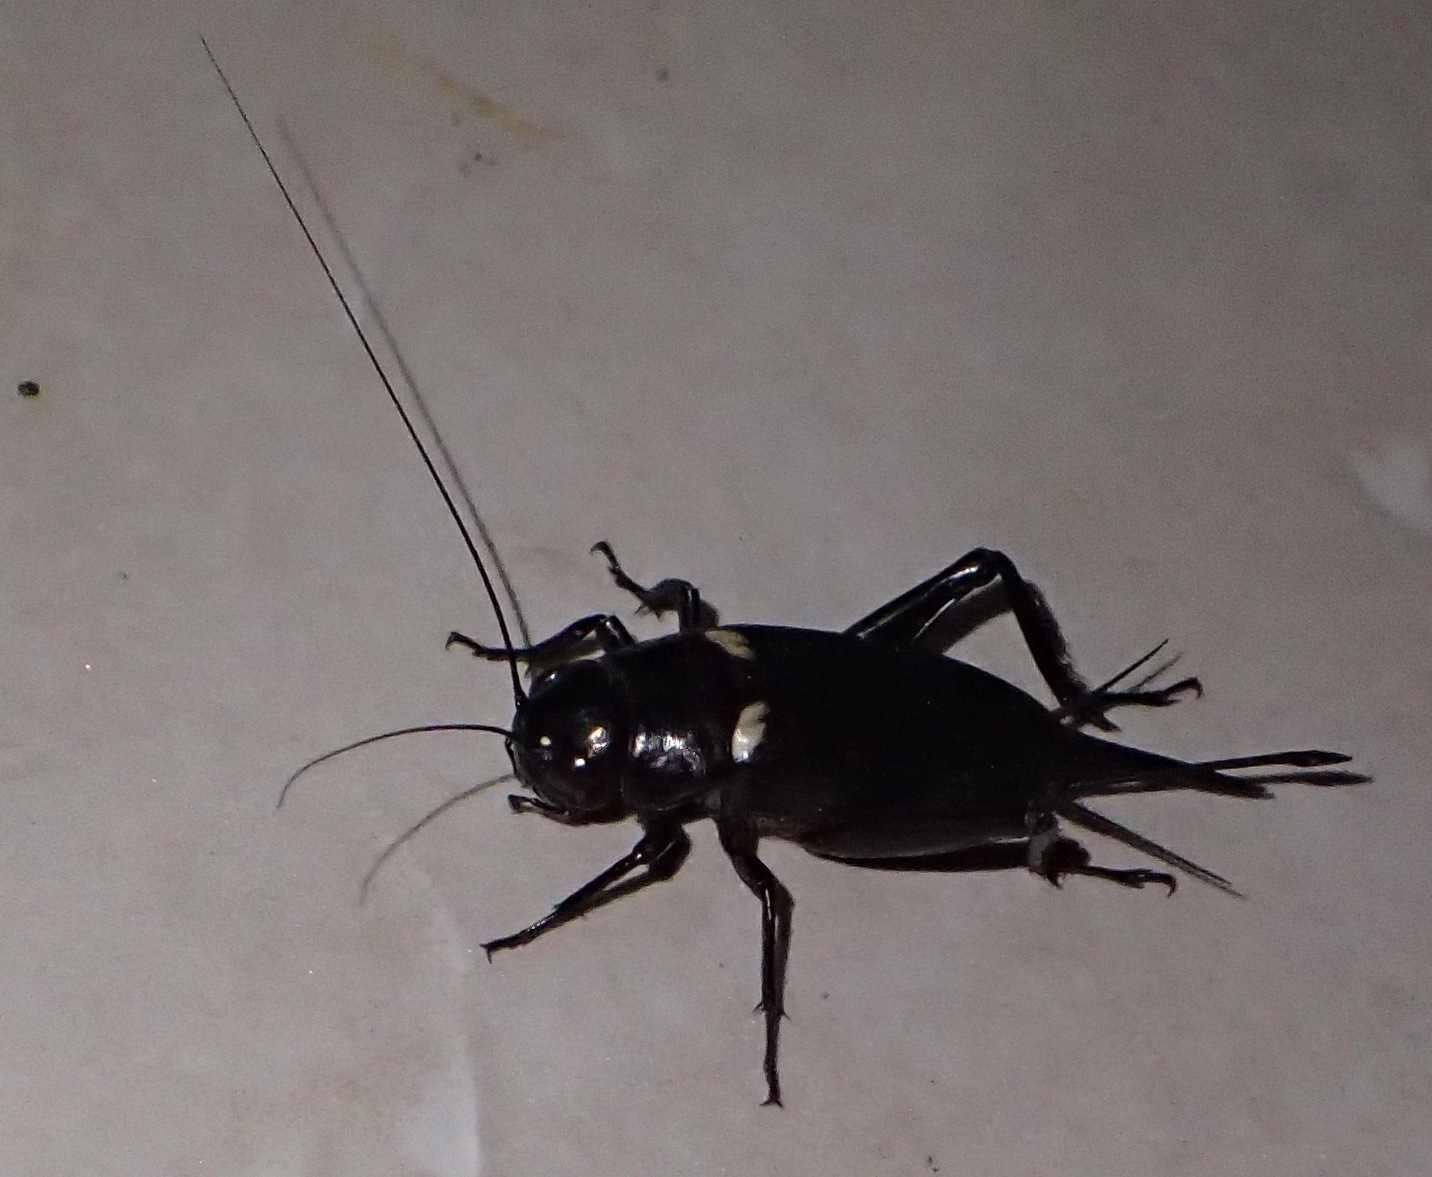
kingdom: Animalia
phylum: Arthropoda
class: Insecta
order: Orthoptera
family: Gryllidae
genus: Gryllus
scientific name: Gryllus bimaculatus
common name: Two-spotted cricket
